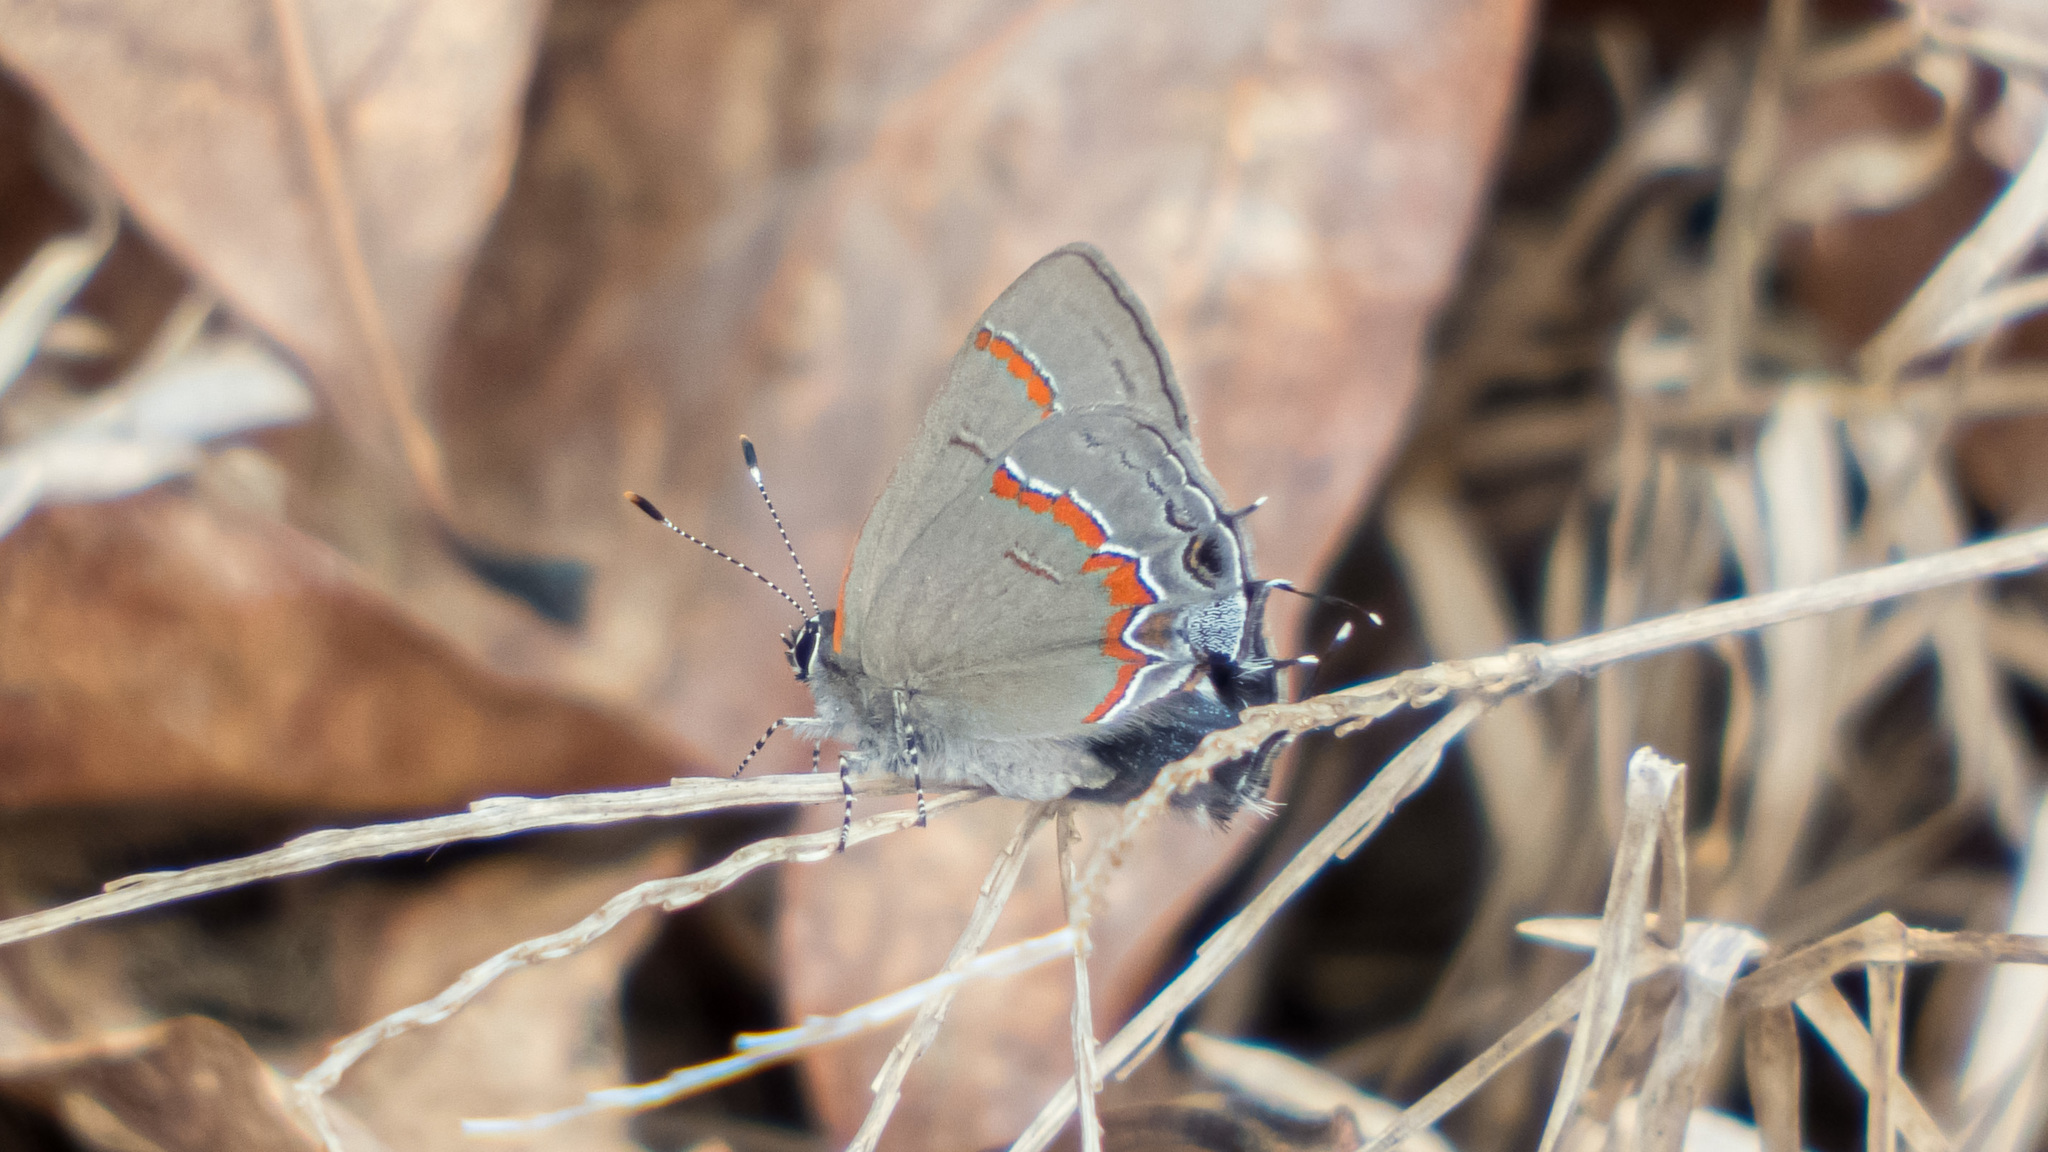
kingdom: Animalia
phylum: Arthropoda
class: Insecta
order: Lepidoptera
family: Lycaenidae
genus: Calycopis
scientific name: Calycopis cecrops
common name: Red-banded hairstreak
